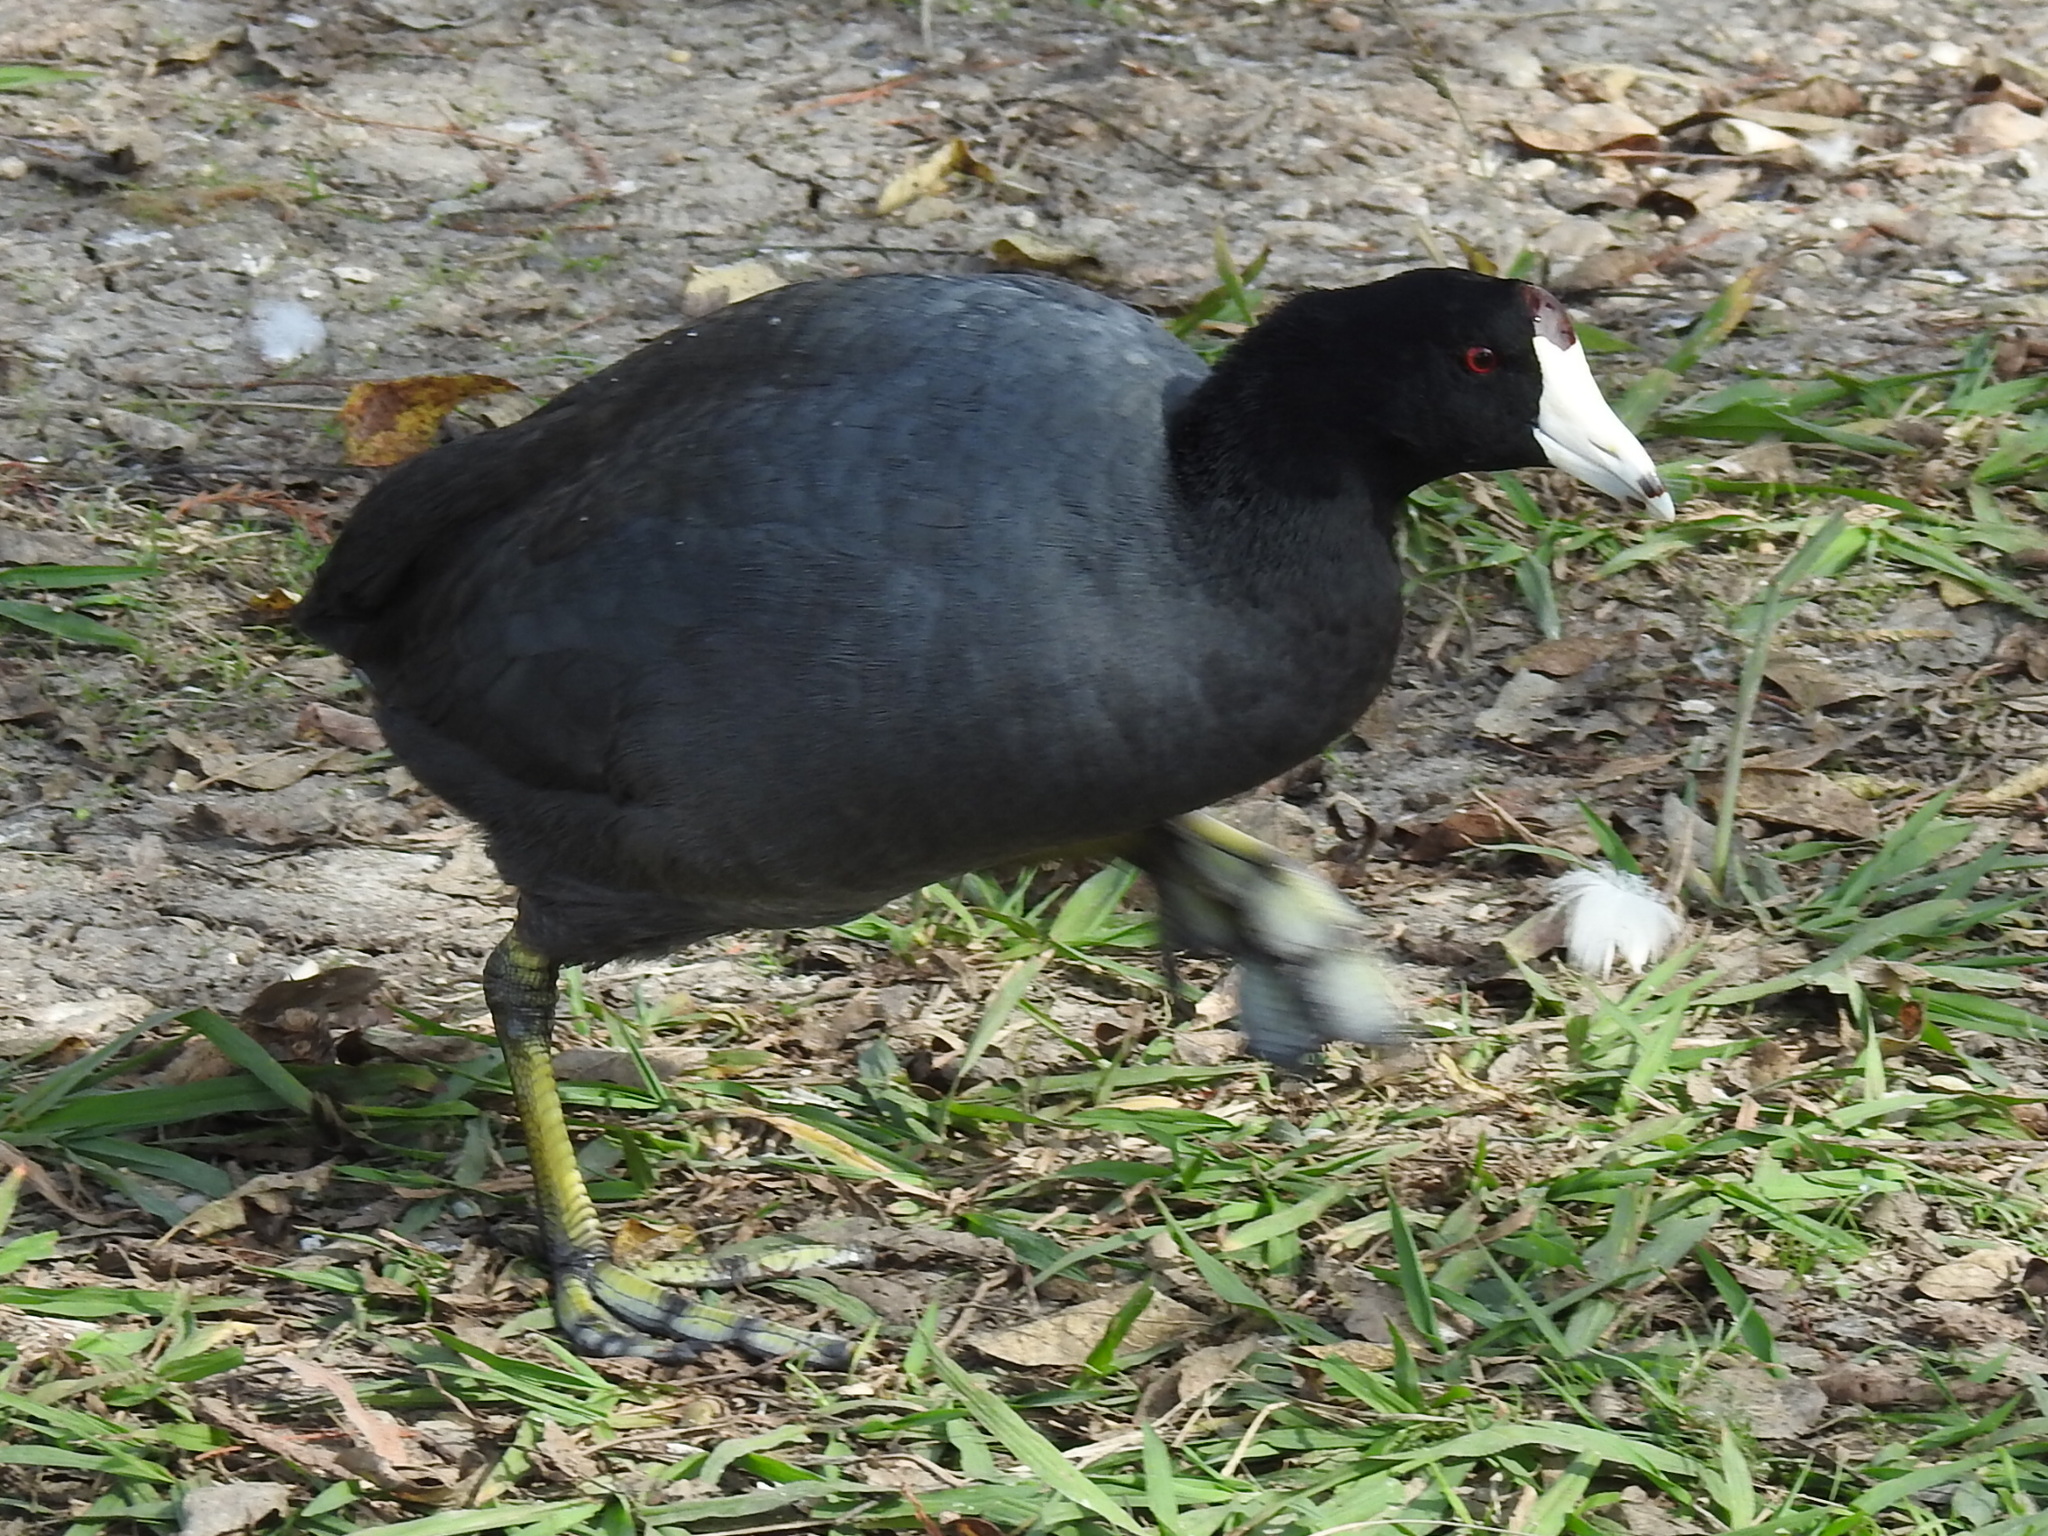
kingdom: Animalia
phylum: Chordata
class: Aves
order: Gruiformes
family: Rallidae
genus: Fulica
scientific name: Fulica americana
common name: American coot
